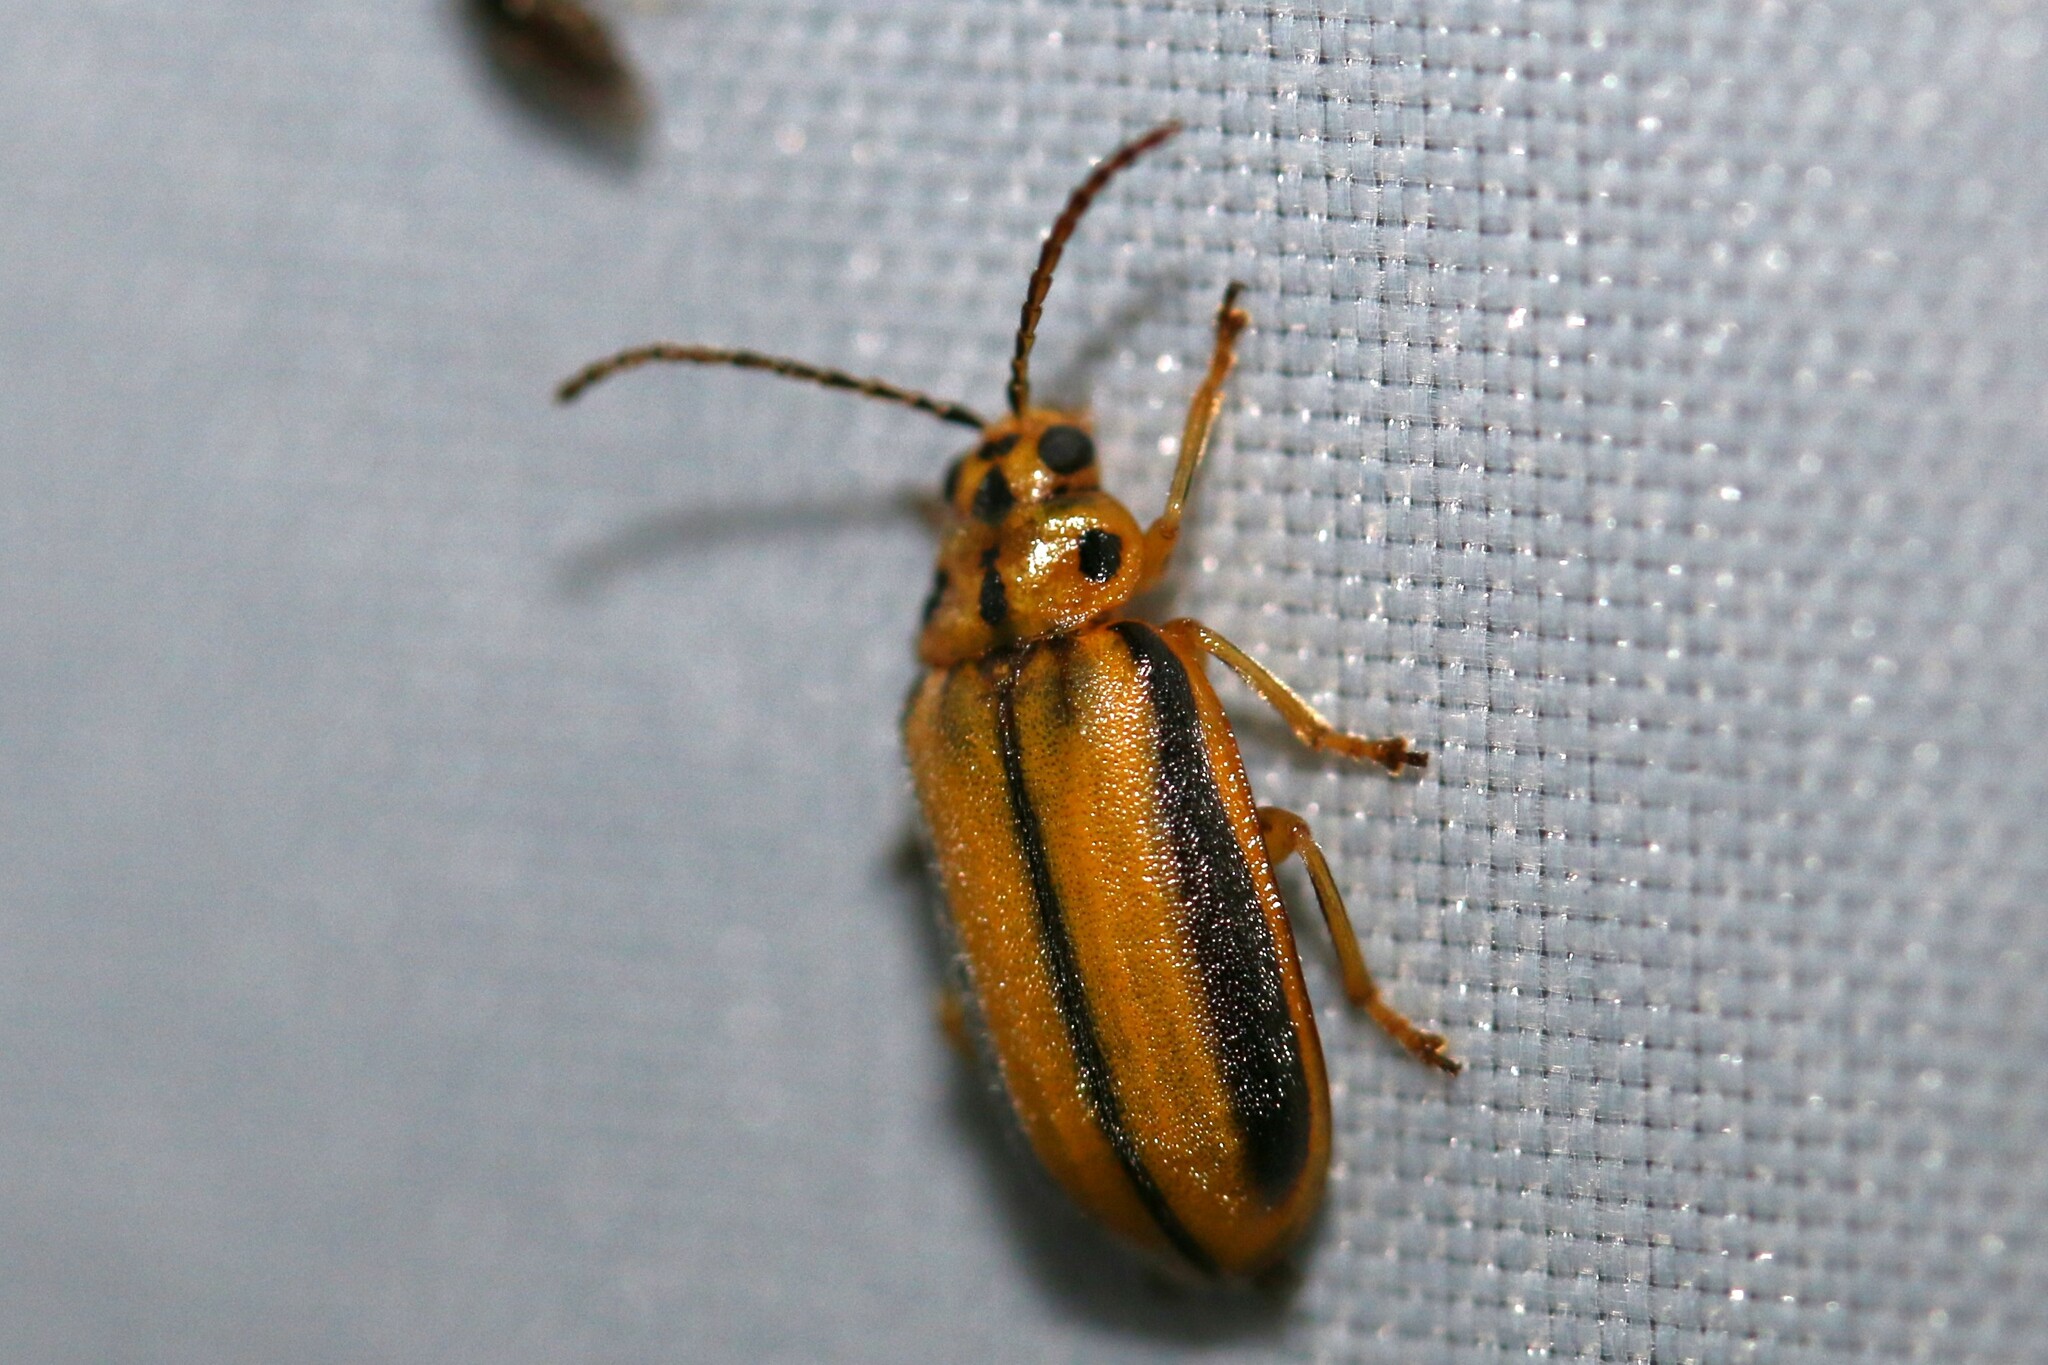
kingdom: Animalia
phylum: Arthropoda
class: Insecta
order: Coleoptera
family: Chrysomelidae
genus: Xanthogaleruca
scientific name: Xanthogaleruca luteola
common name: Elm leaf beetle
